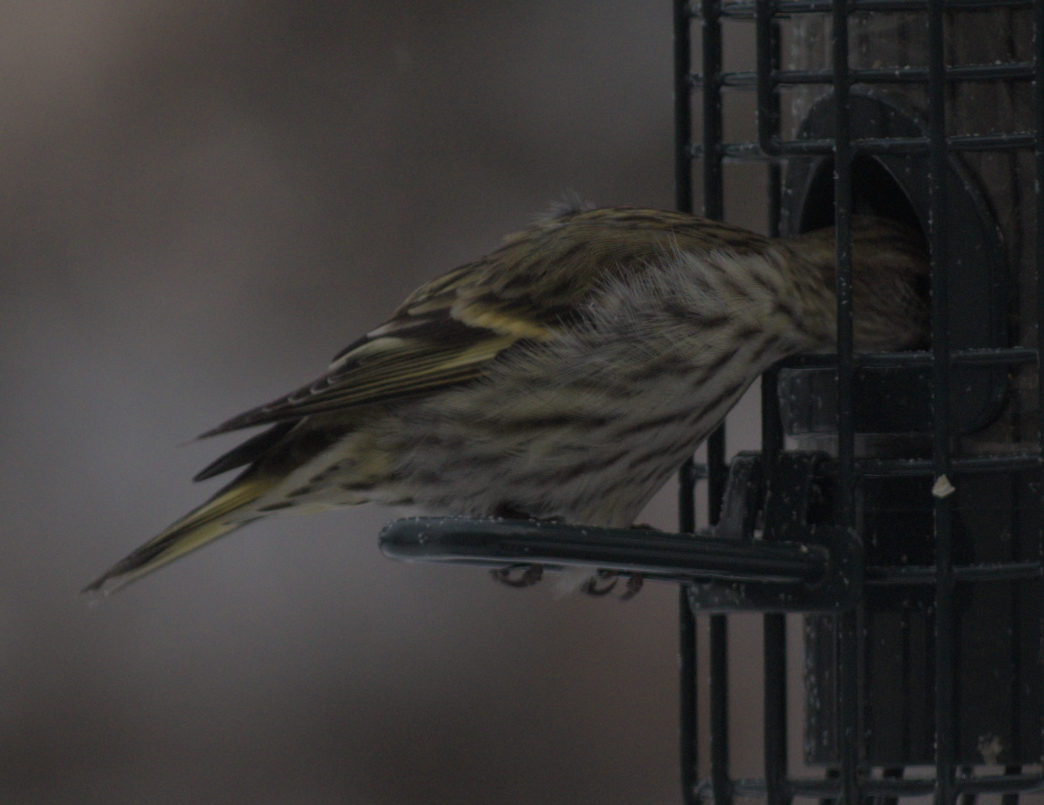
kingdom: Animalia
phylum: Chordata
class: Aves
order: Passeriformes
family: Fringillidae
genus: Spinus
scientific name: Spinus pinus
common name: Pine siskin
